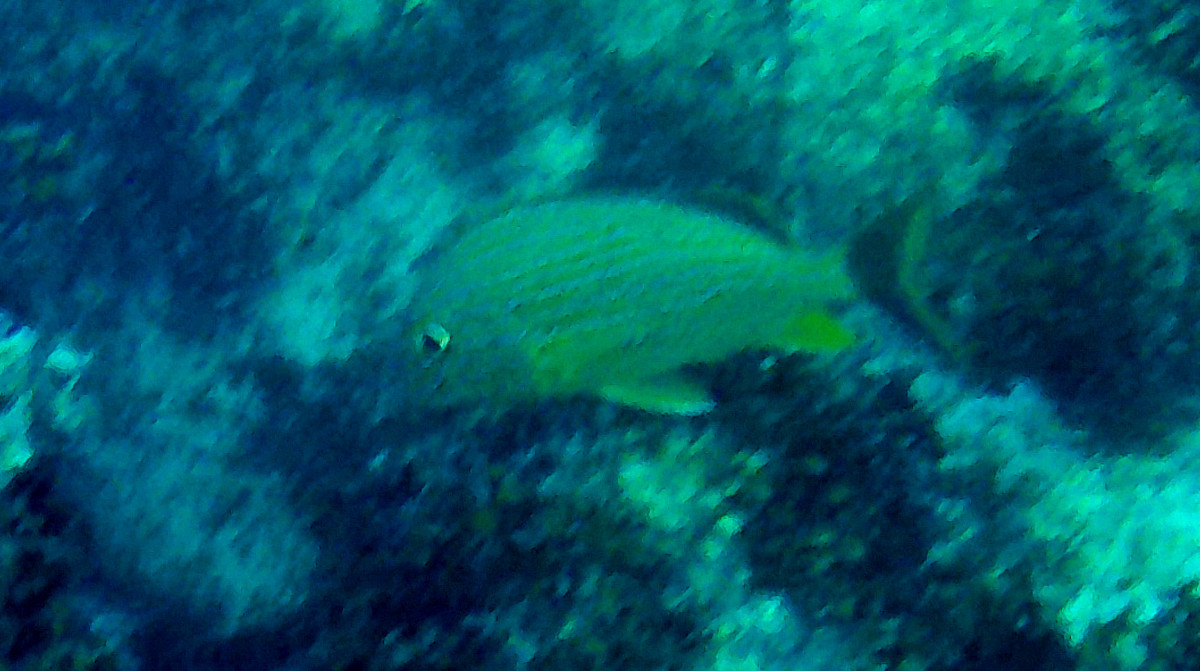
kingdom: Animalia
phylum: Chordata
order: Perciformes
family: Haemulidae
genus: Haemulon
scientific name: Haemulon sciurus
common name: Bluestriped grunt
